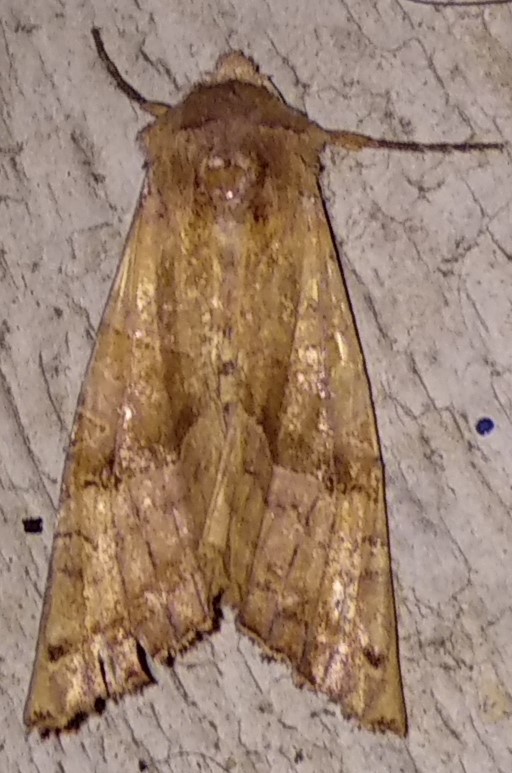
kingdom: Animalia
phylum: Arthropoda
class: Insecta
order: Lepidoptera
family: Noctuidae
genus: Phlogophora
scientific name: Phlogophora periculosa
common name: Brown angle shades
